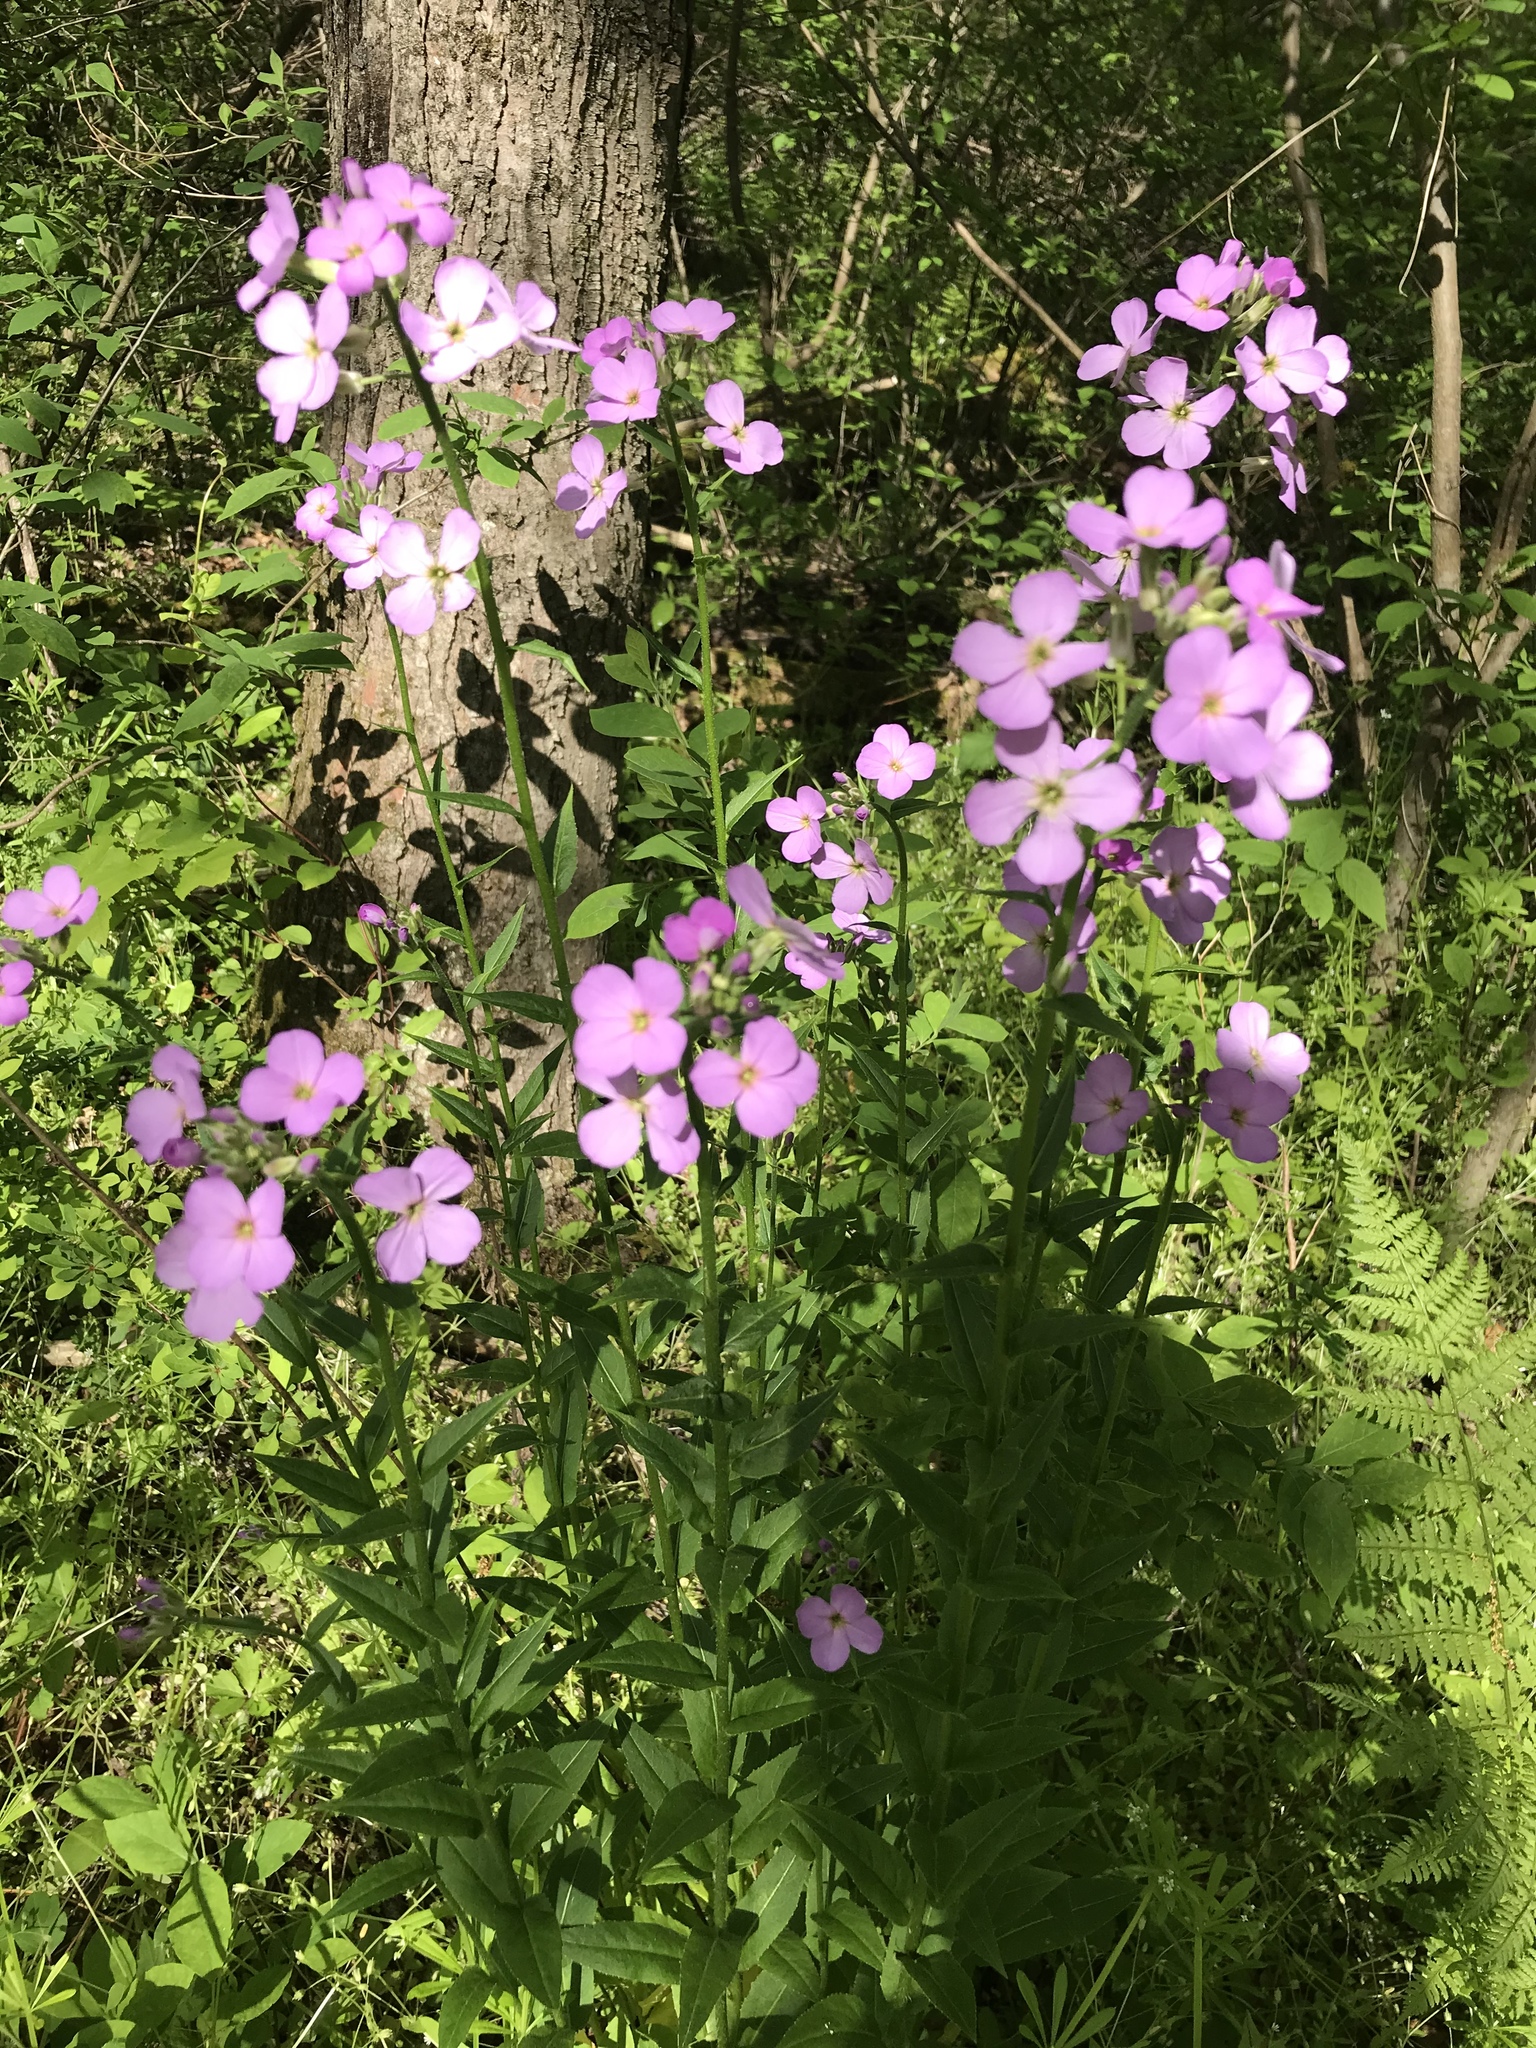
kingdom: Plantae
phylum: Tracheophyta
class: Magnoliopsida
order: Brassicales
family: Brassicaceae
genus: Hesperis
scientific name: Hesperis matronalis
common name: Dame's-violet
